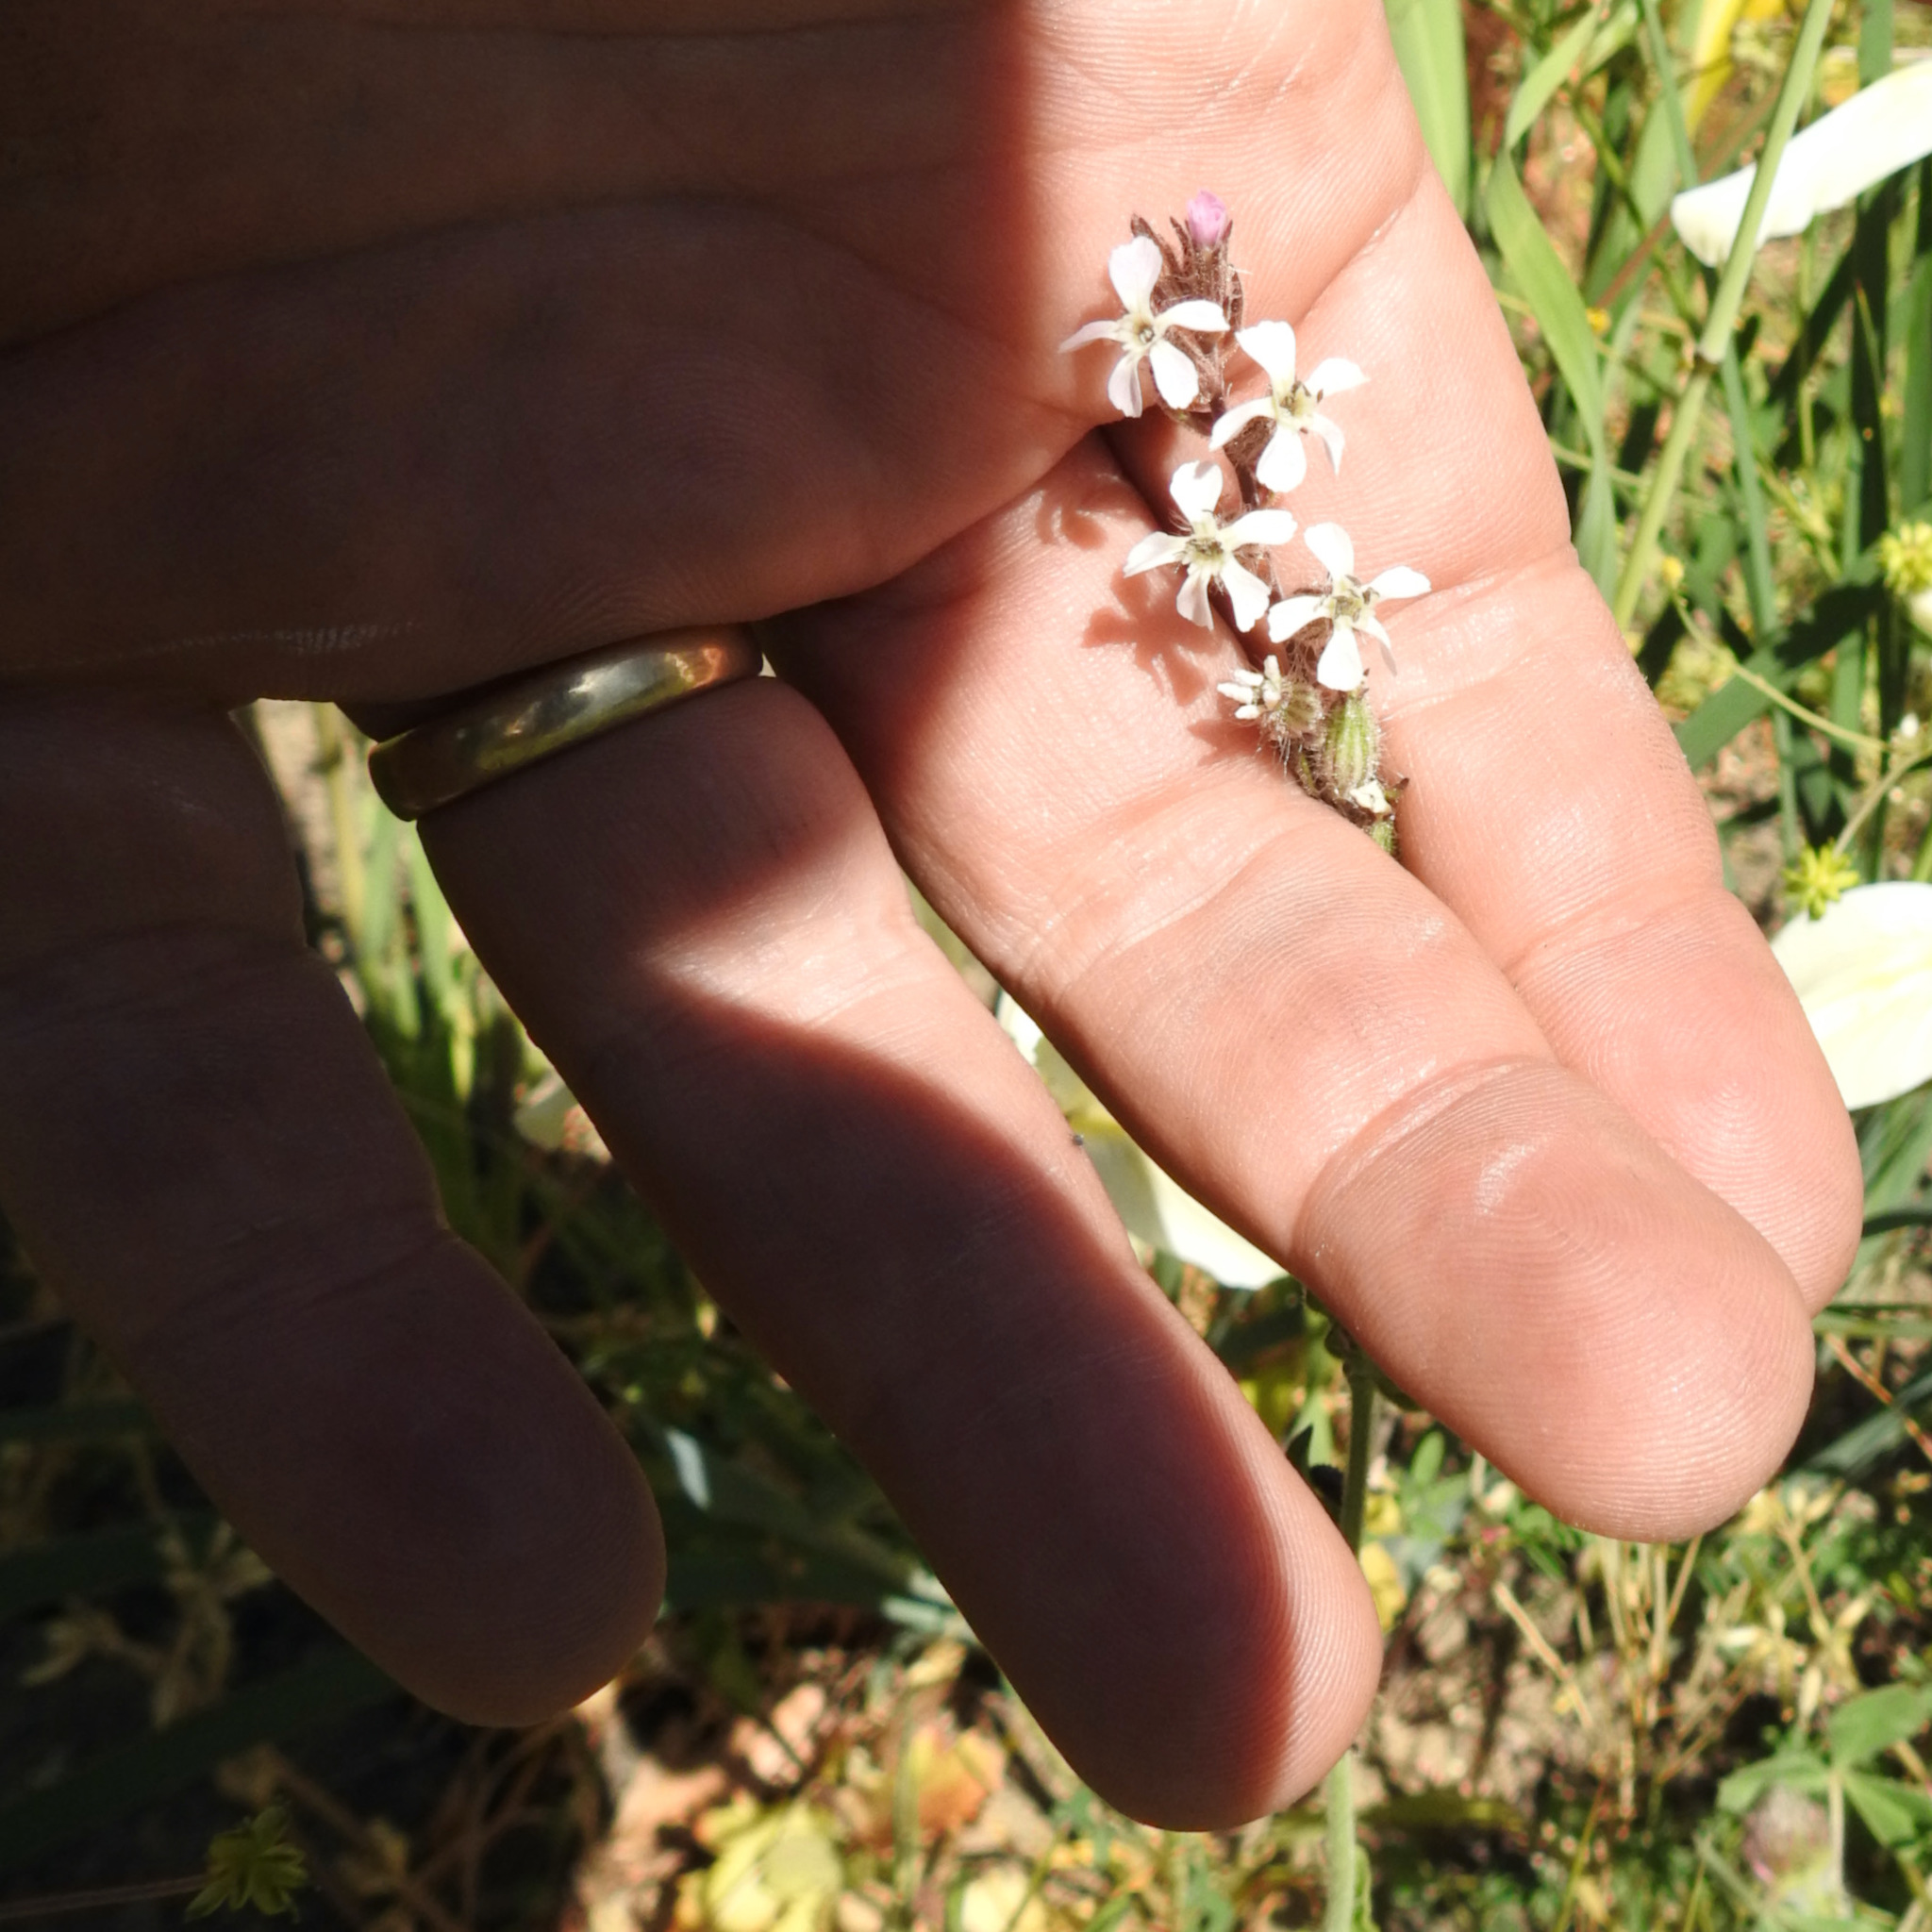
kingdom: Plantae
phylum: Tracheophyta
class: Magnoliopsida
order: Caryophyllales
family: Caryophyllaceae
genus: Silene
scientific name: Silene gallica
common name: Small-flowered catchfly
